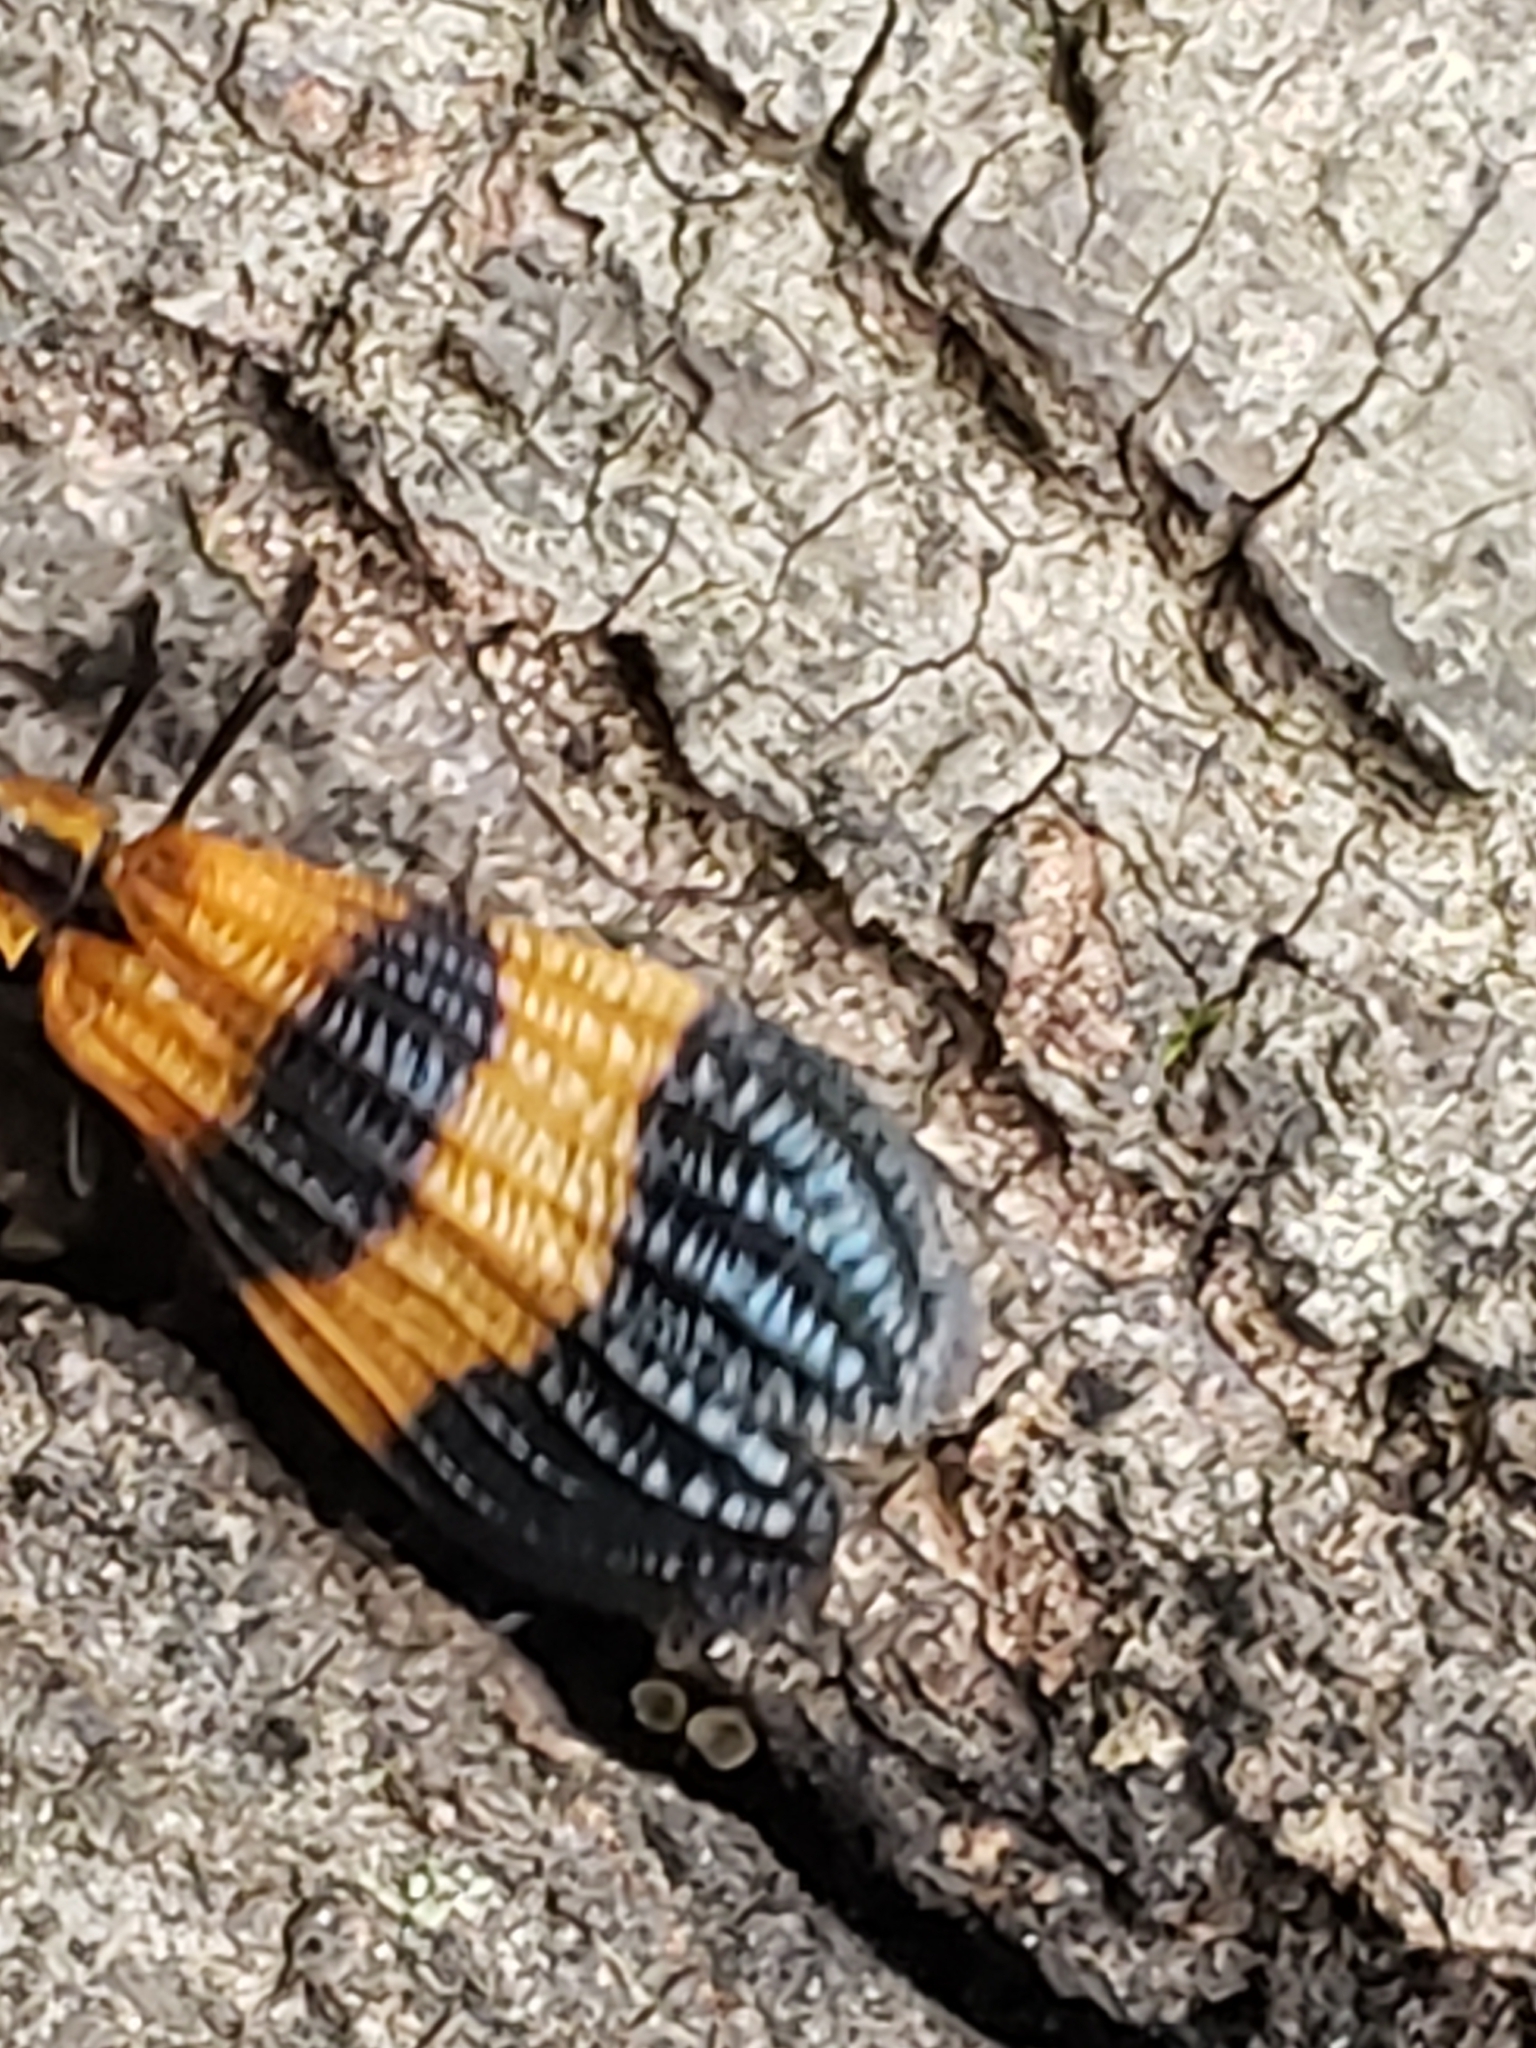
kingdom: Animalia
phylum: Arthropoda
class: Insecta
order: Coleoptera
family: Lycidae
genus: Calopteron
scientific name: Calopteron terminale
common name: End band net-winged beetle
